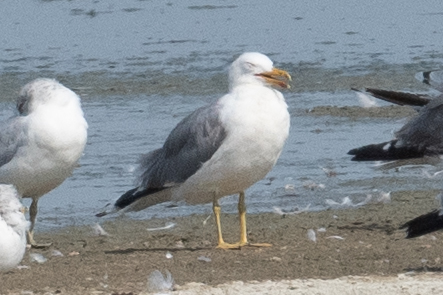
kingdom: Animalia
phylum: Chordata
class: Aves
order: Charadriiformes
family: Laridae
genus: Larus
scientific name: Larus californicus
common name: California gull
